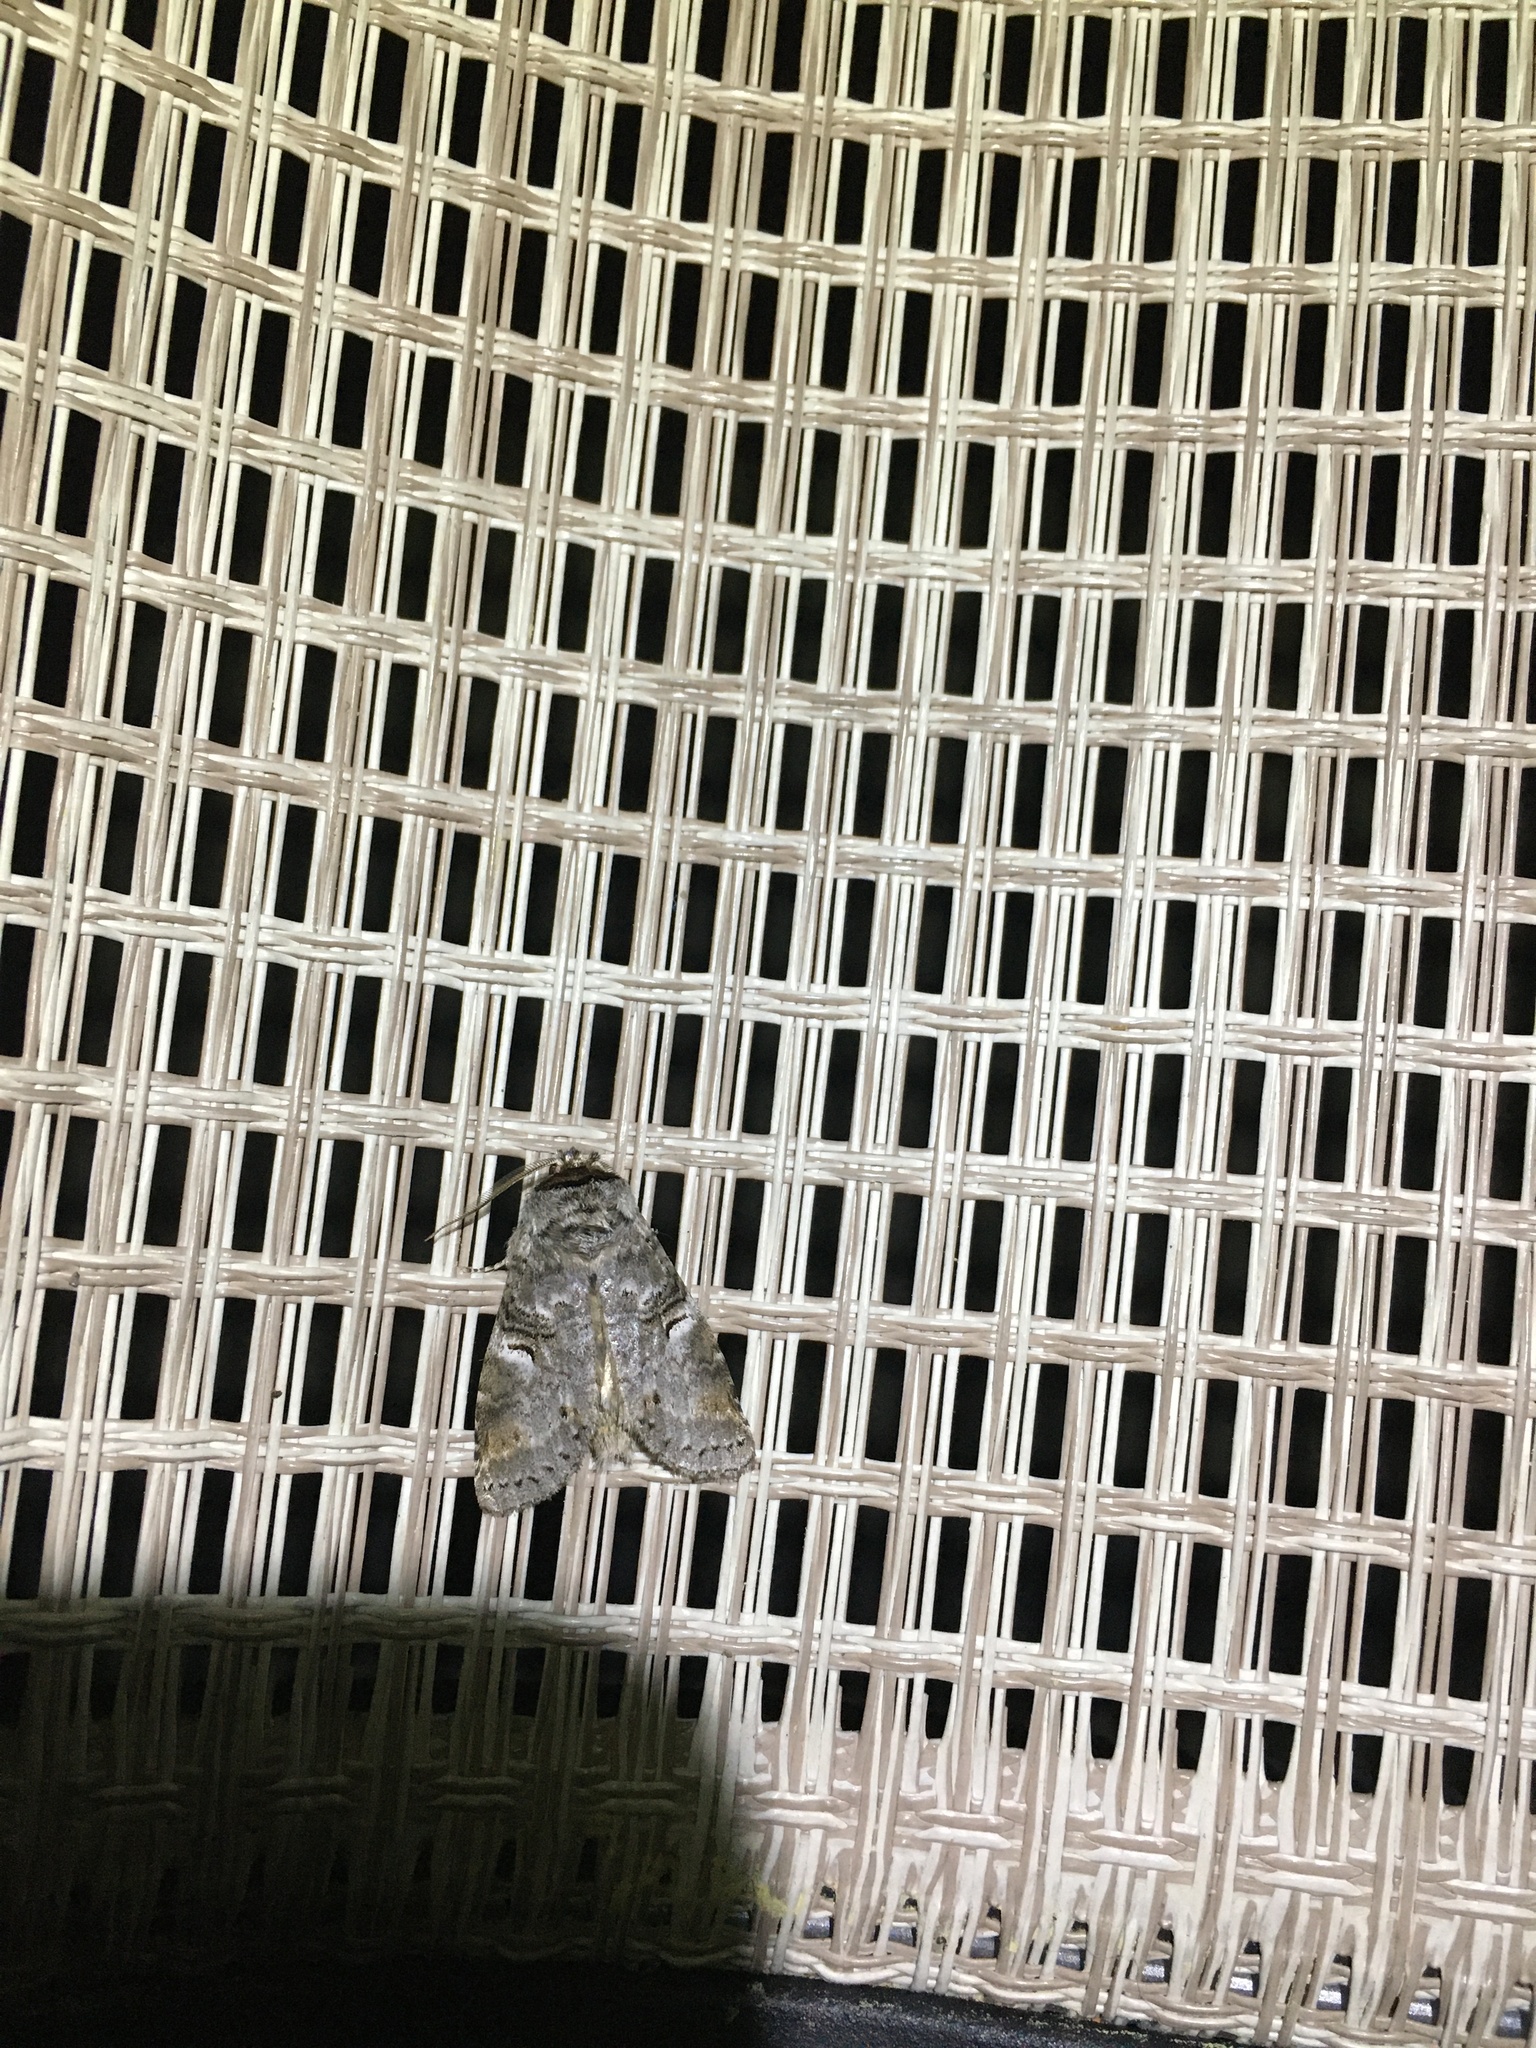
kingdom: Animalia
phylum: Arthropoda
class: Insecta
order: Lepidoptera
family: Notodontidae
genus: Ellida
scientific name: Ellida caniplaga
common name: Linden prominent
